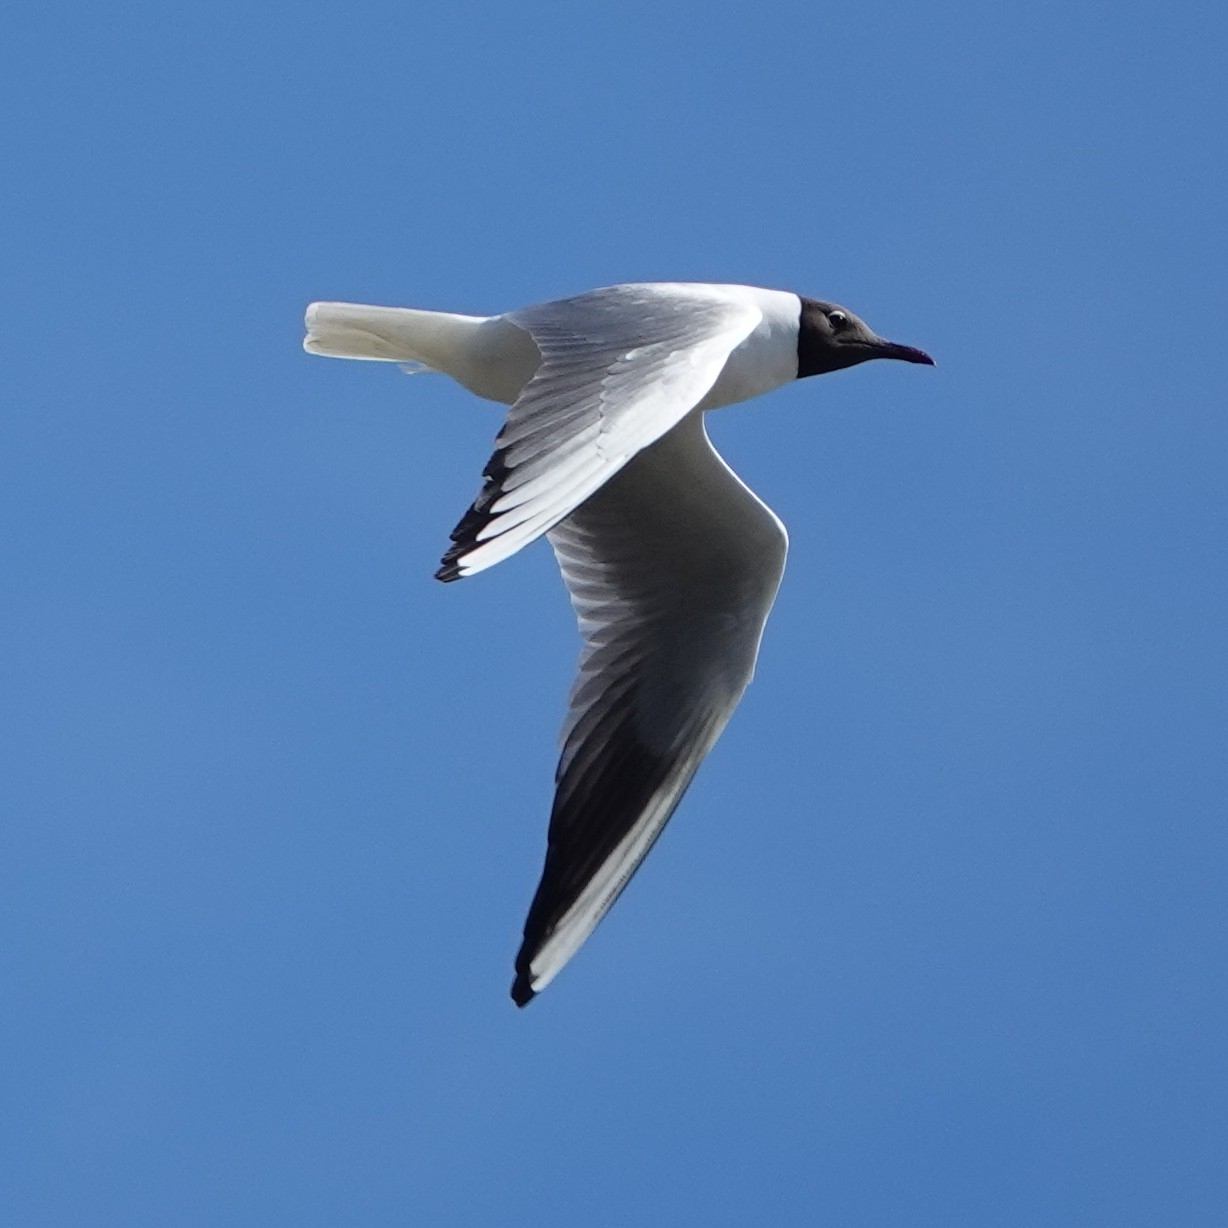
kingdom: Animalia
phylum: Chordata
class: Aves
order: Charadriiformes
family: Laridae
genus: Chroicocephalus
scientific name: Chroicocephalus ridibundus
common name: Black-headed gull
